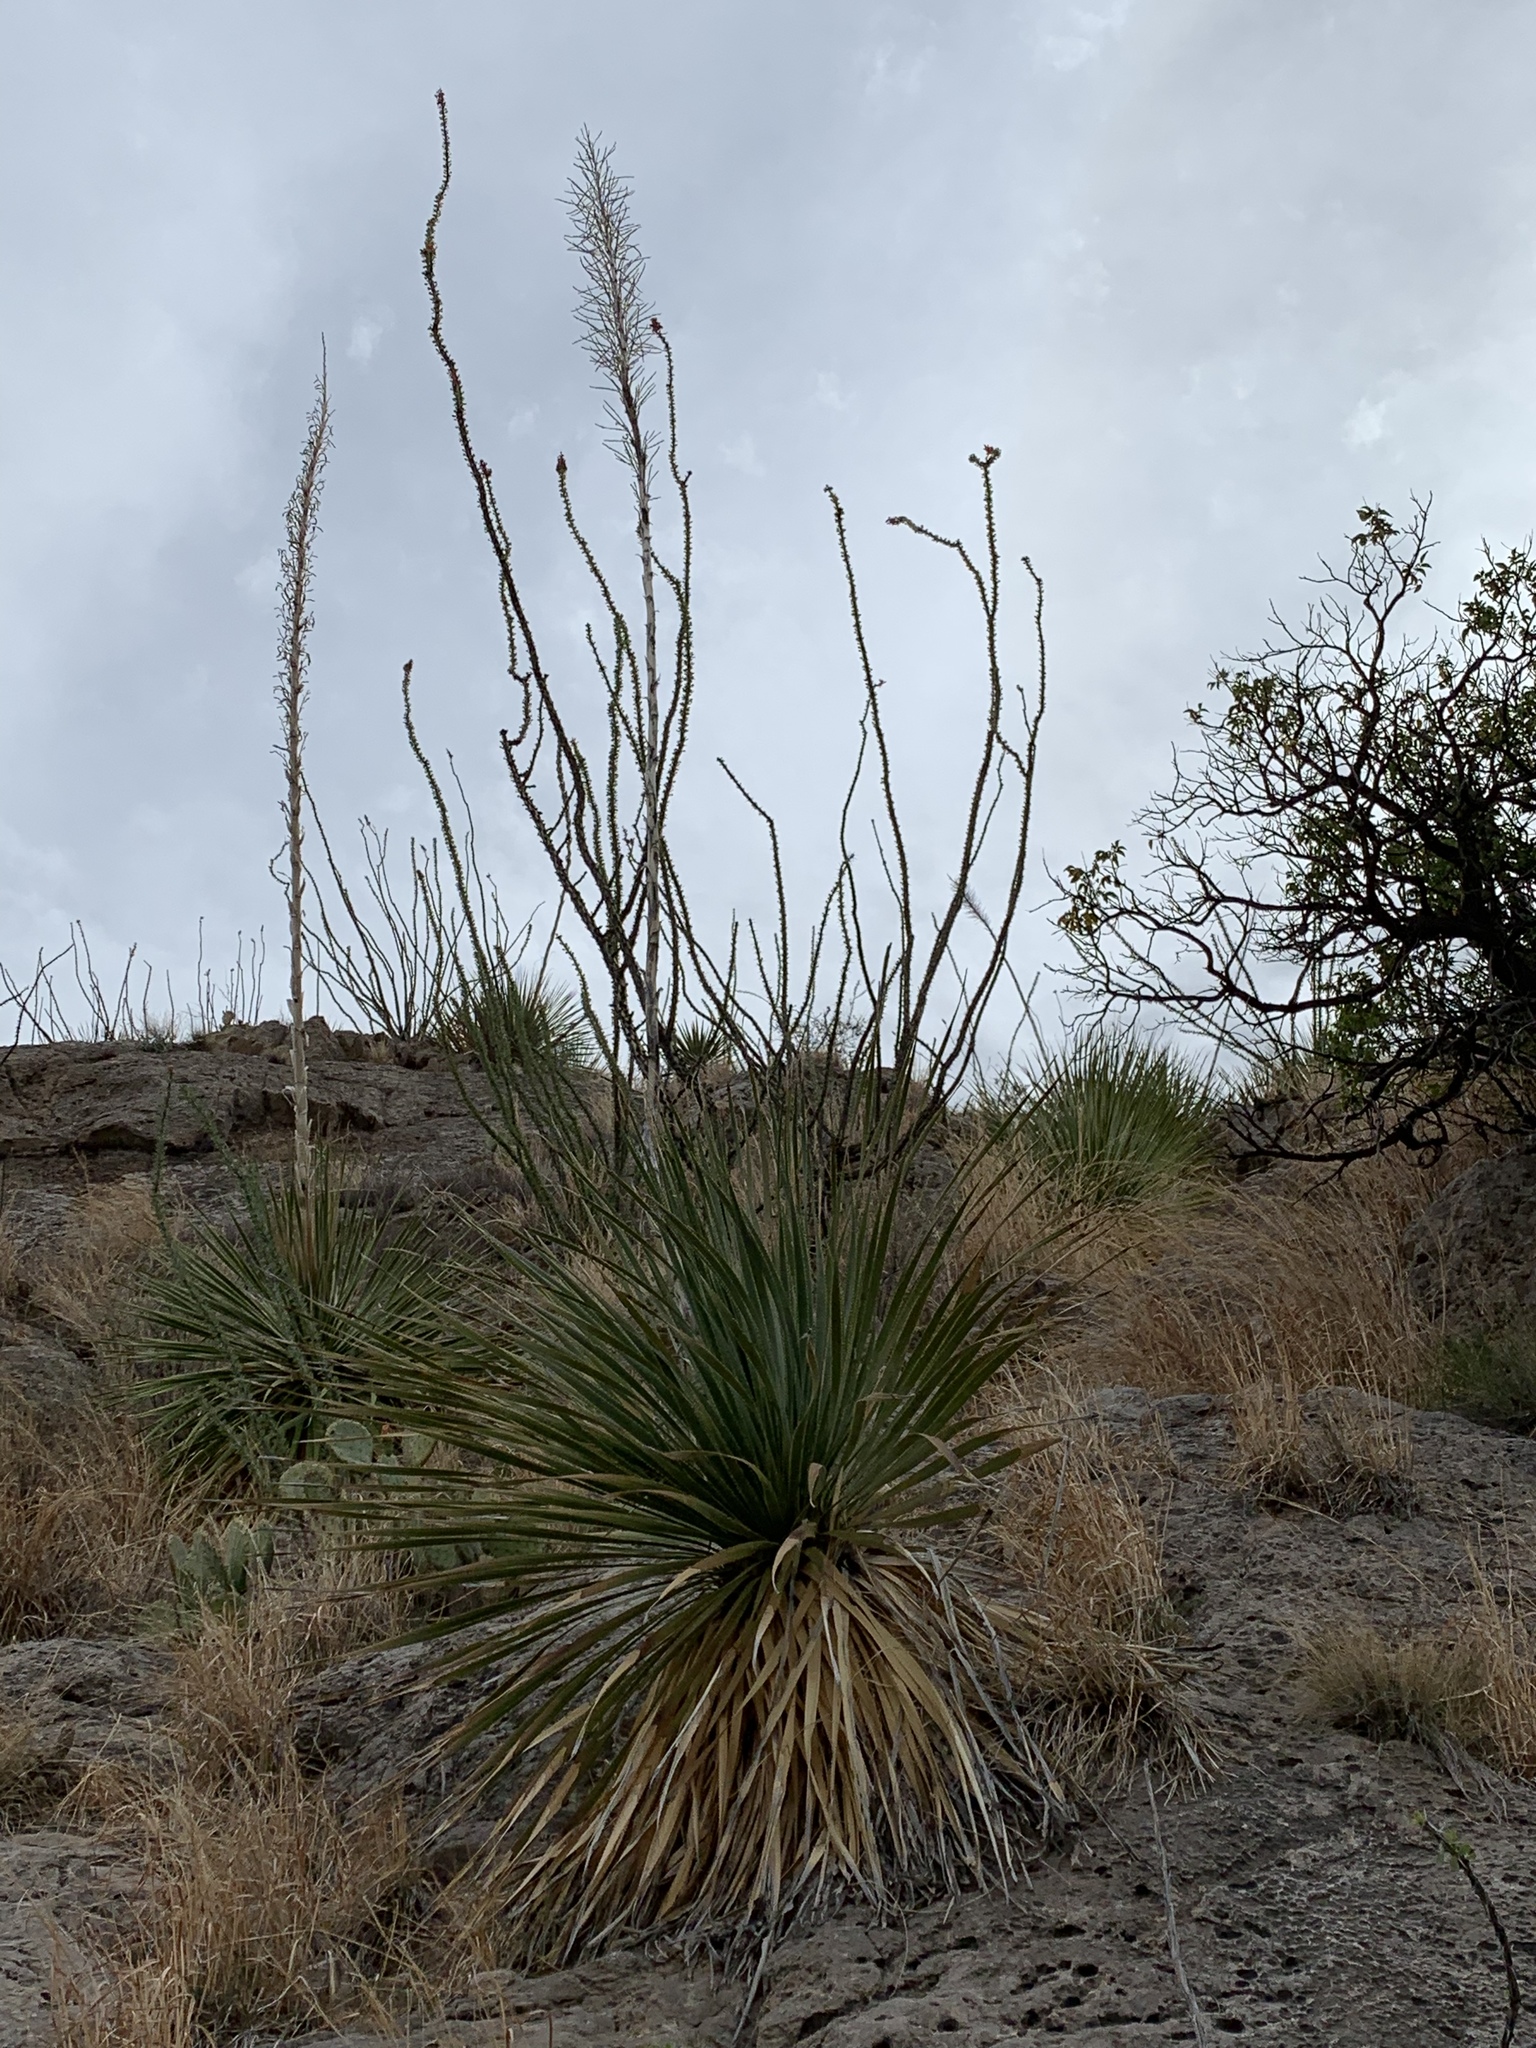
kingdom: Plantae
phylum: Tracheophyta
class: Magnoliopsida
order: Ericales
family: Fouquieriaceae
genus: Fouquieria
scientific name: Fouquieria splendens
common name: Vine-cactus
